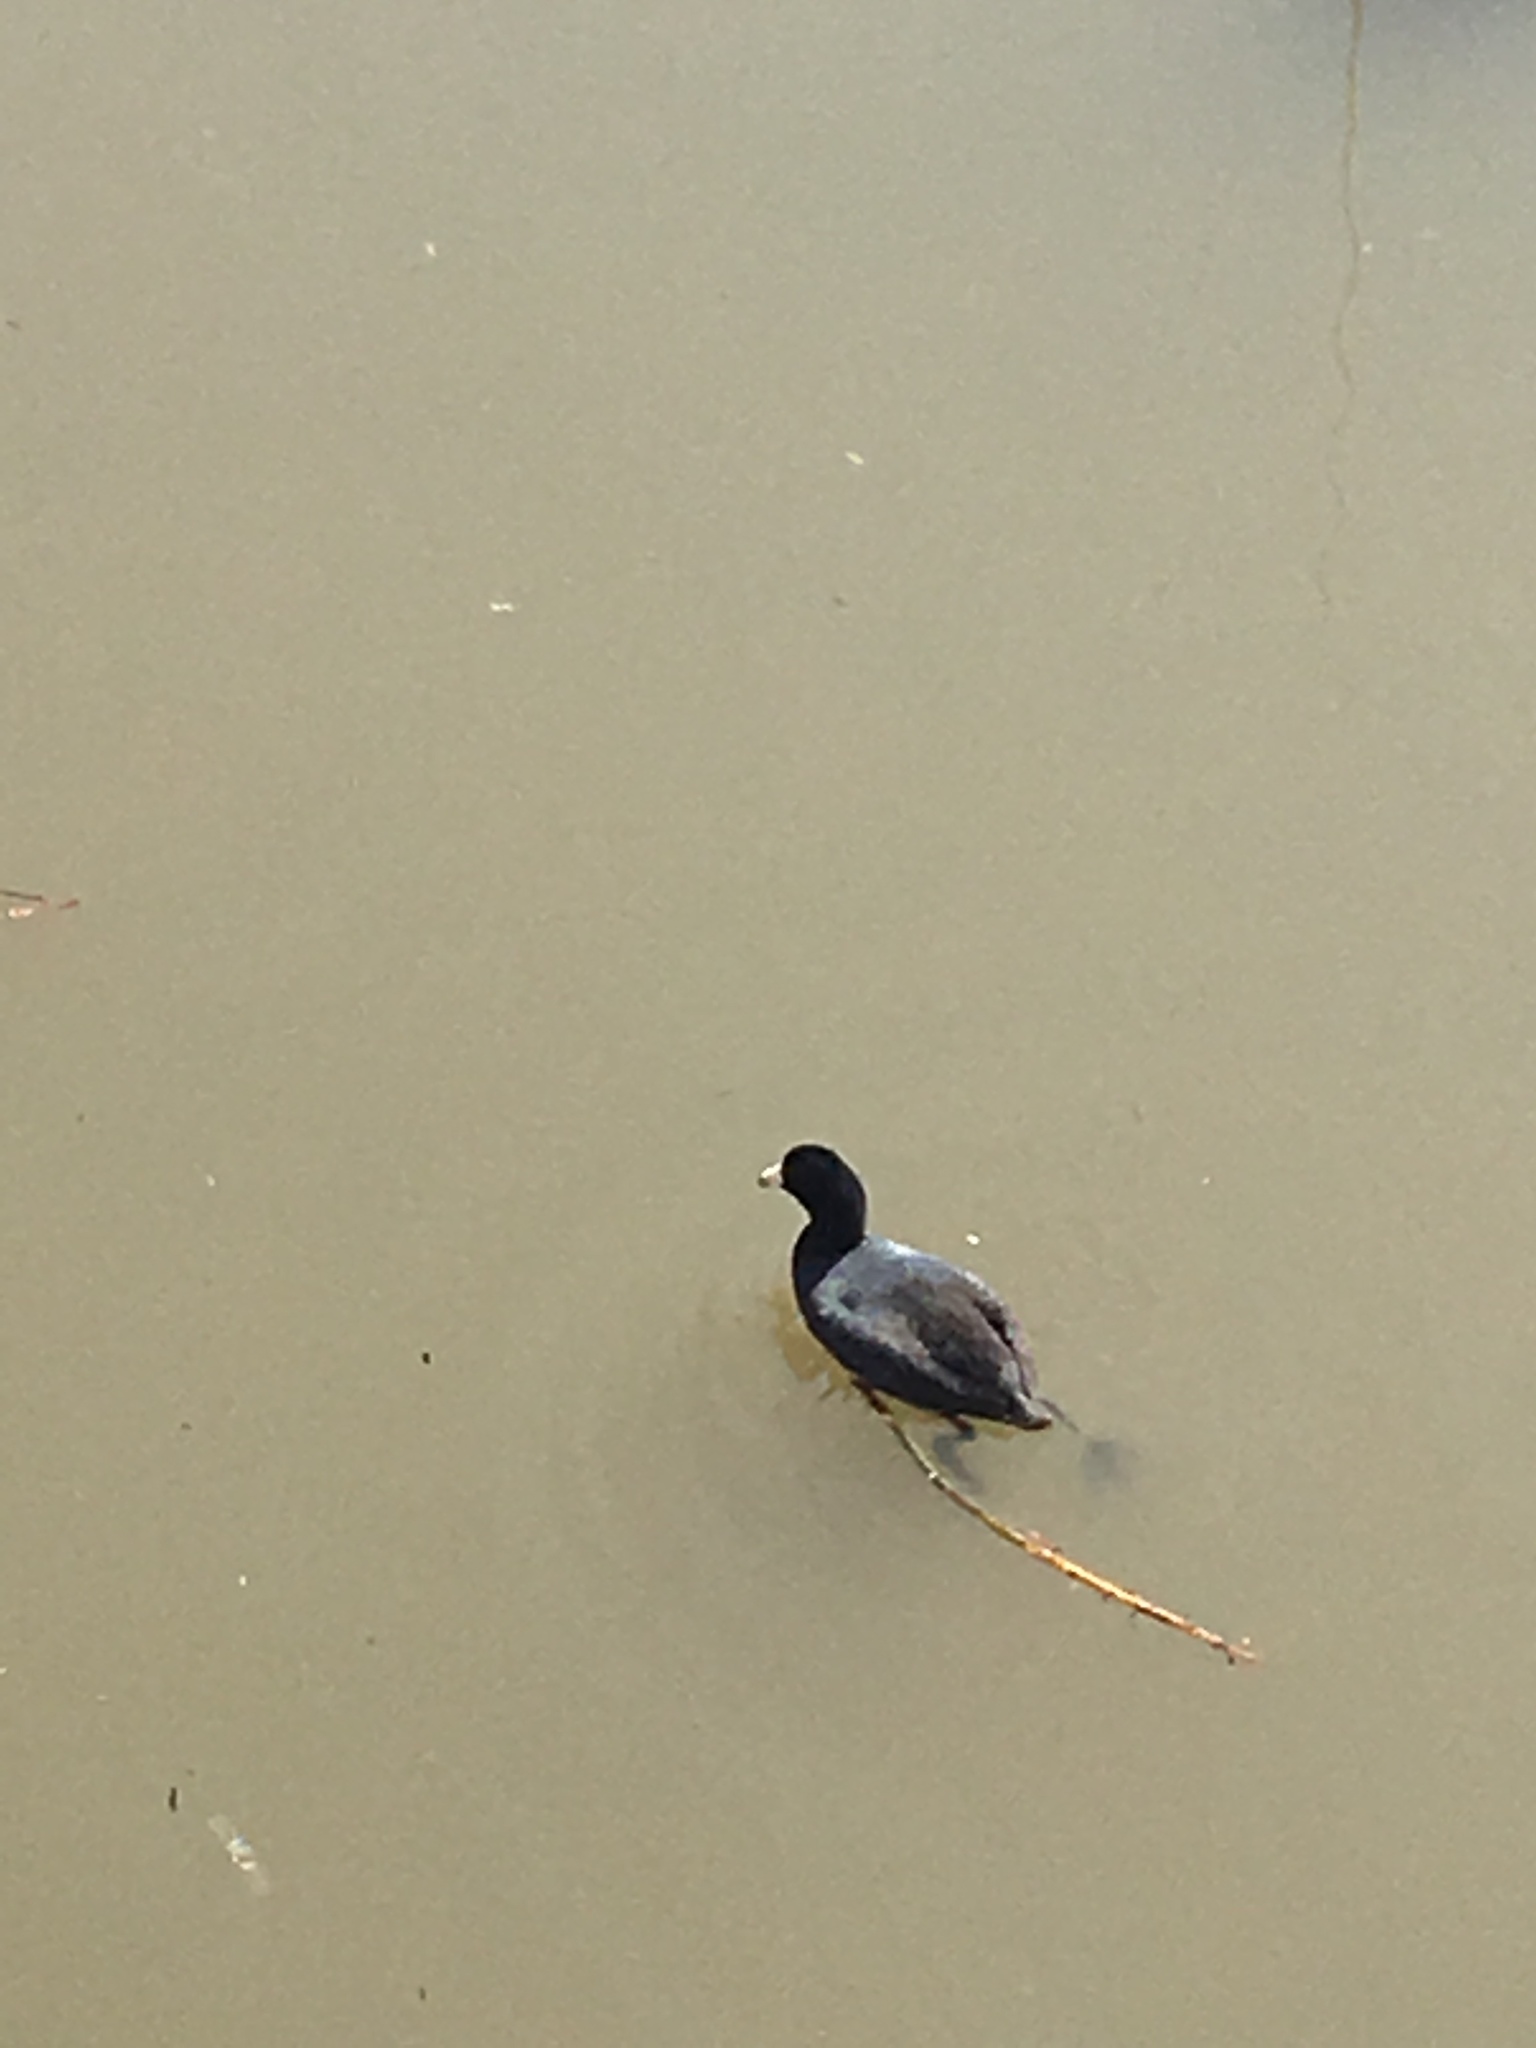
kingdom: Animalia
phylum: Chordata
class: Aves
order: Gruiformes
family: Rallidae
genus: Fulica
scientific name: Fulica americana
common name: American coot
